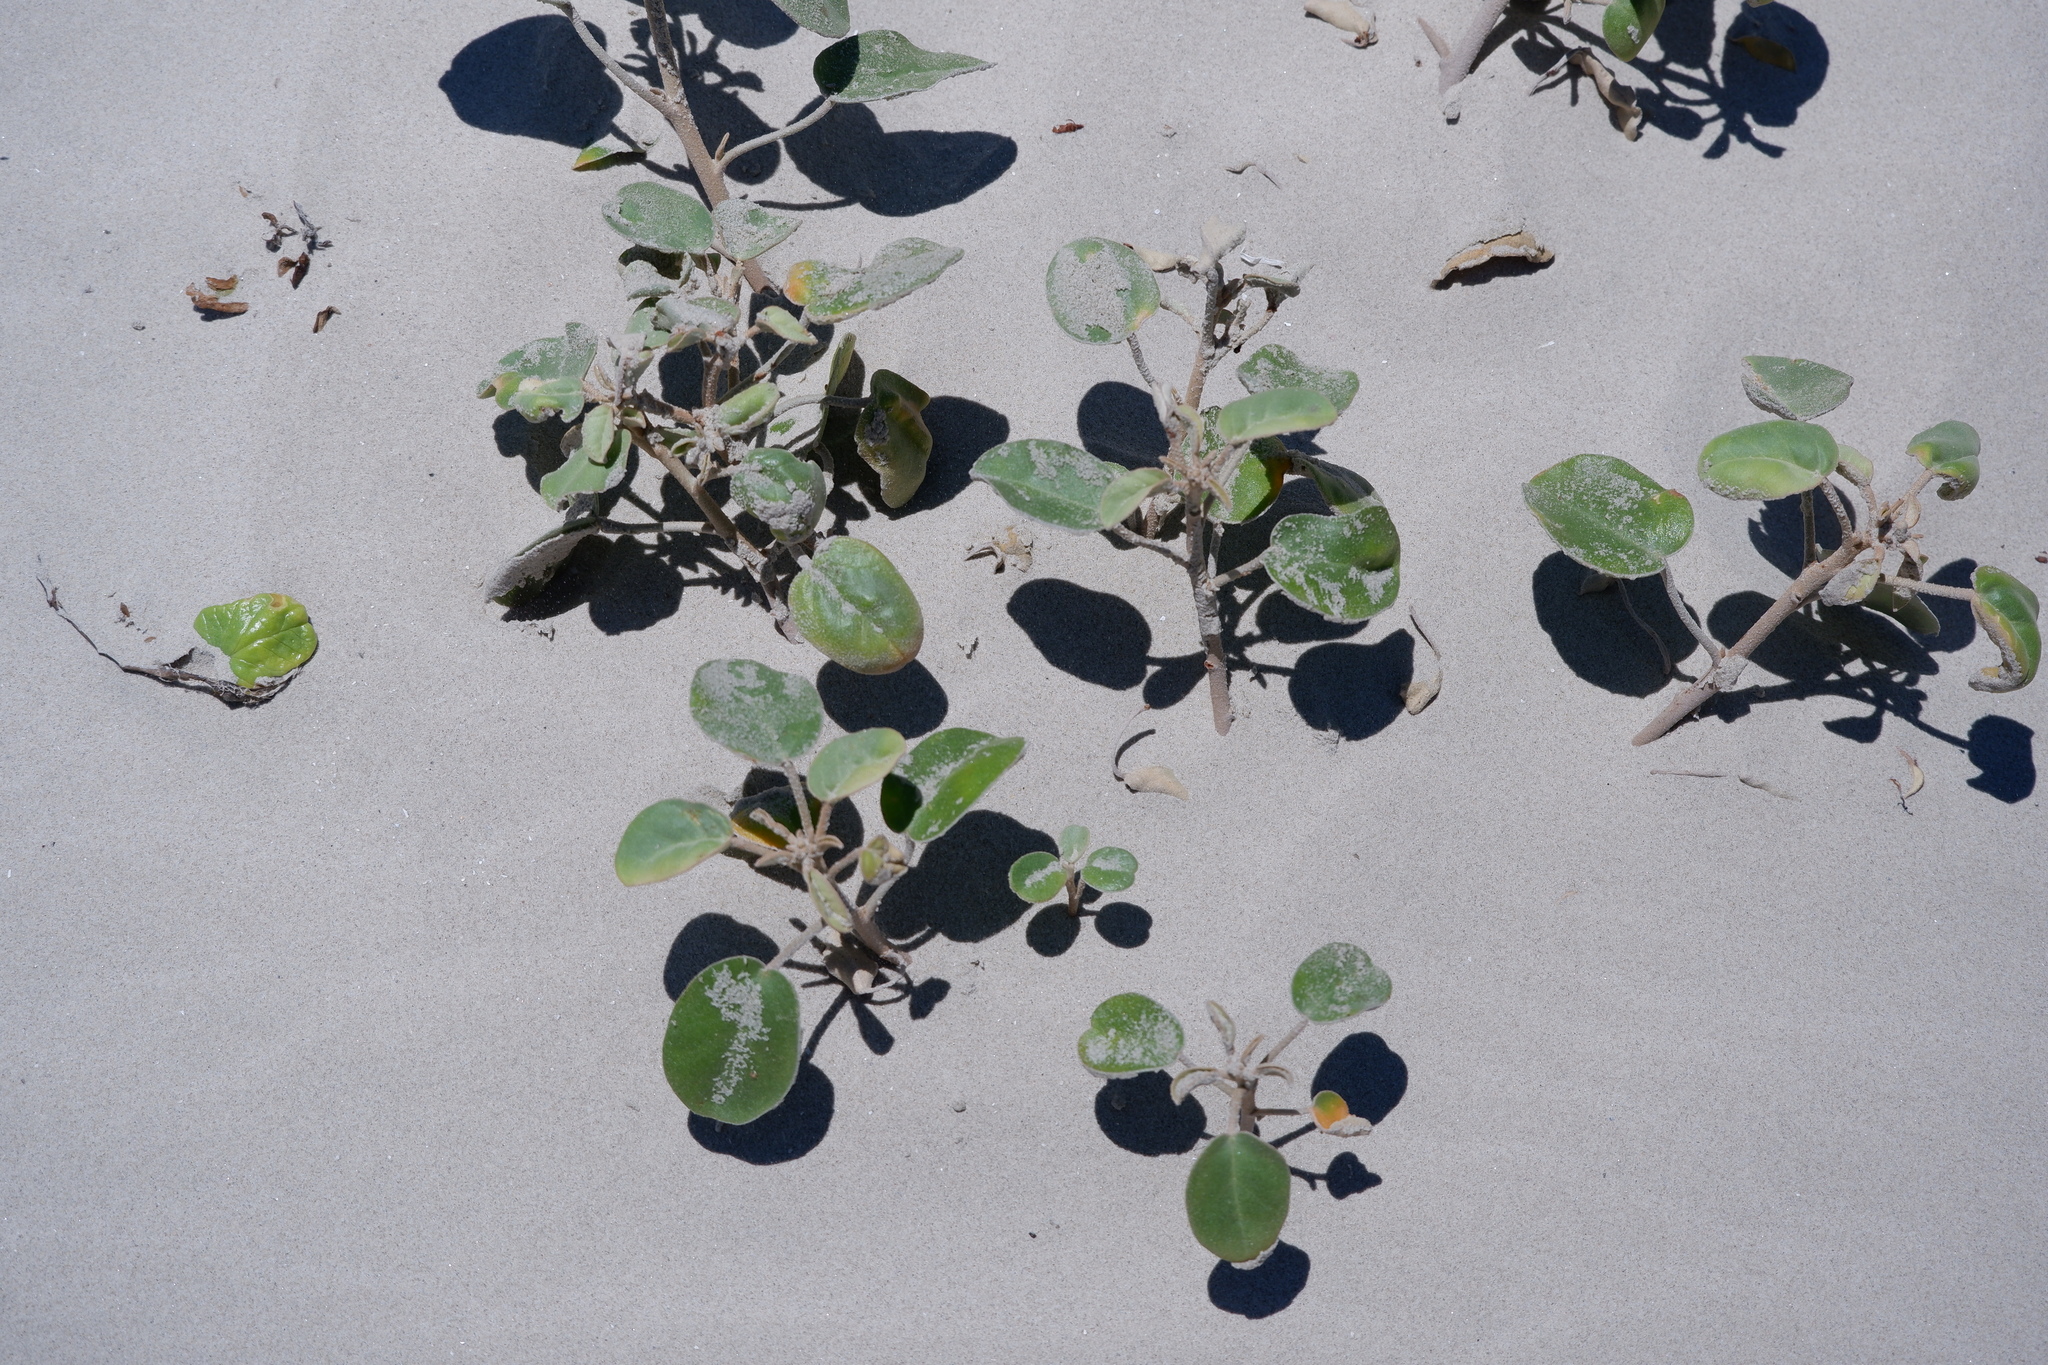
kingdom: Plantae
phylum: Tracheophyta
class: Magnoliopsida
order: Malpighiales
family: Euphorbiaceae
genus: Croton
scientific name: Croton punctatus
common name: Beach-tea
